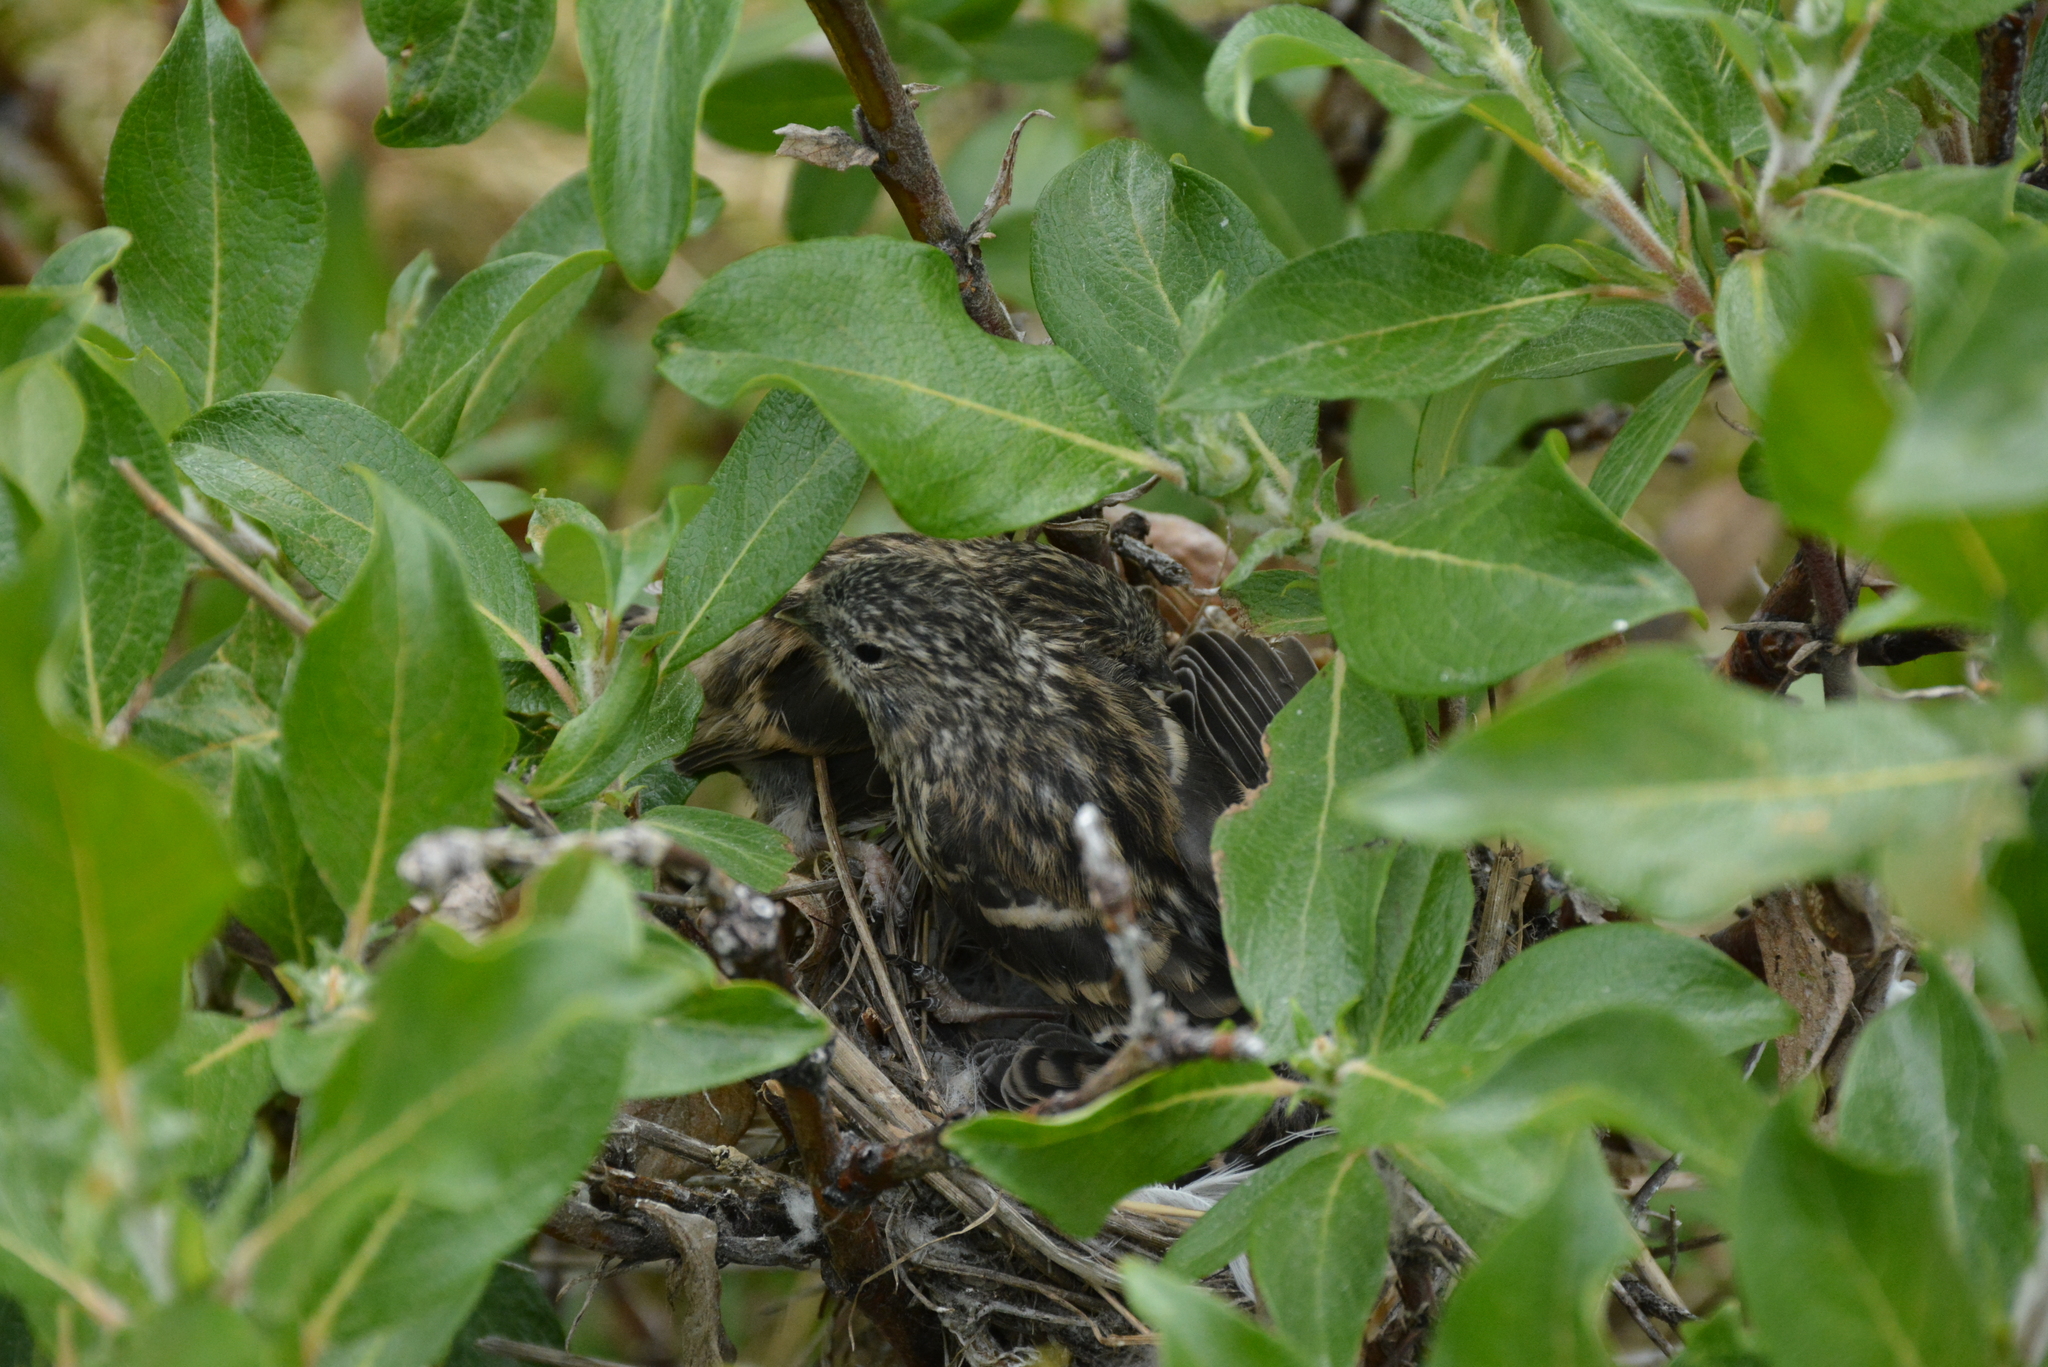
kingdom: Animalia
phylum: Chordata
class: Aves
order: Passeriformes
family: Fringillidae
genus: Acanthis
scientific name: Acanthis hornemanni
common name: Arctic redpoll
